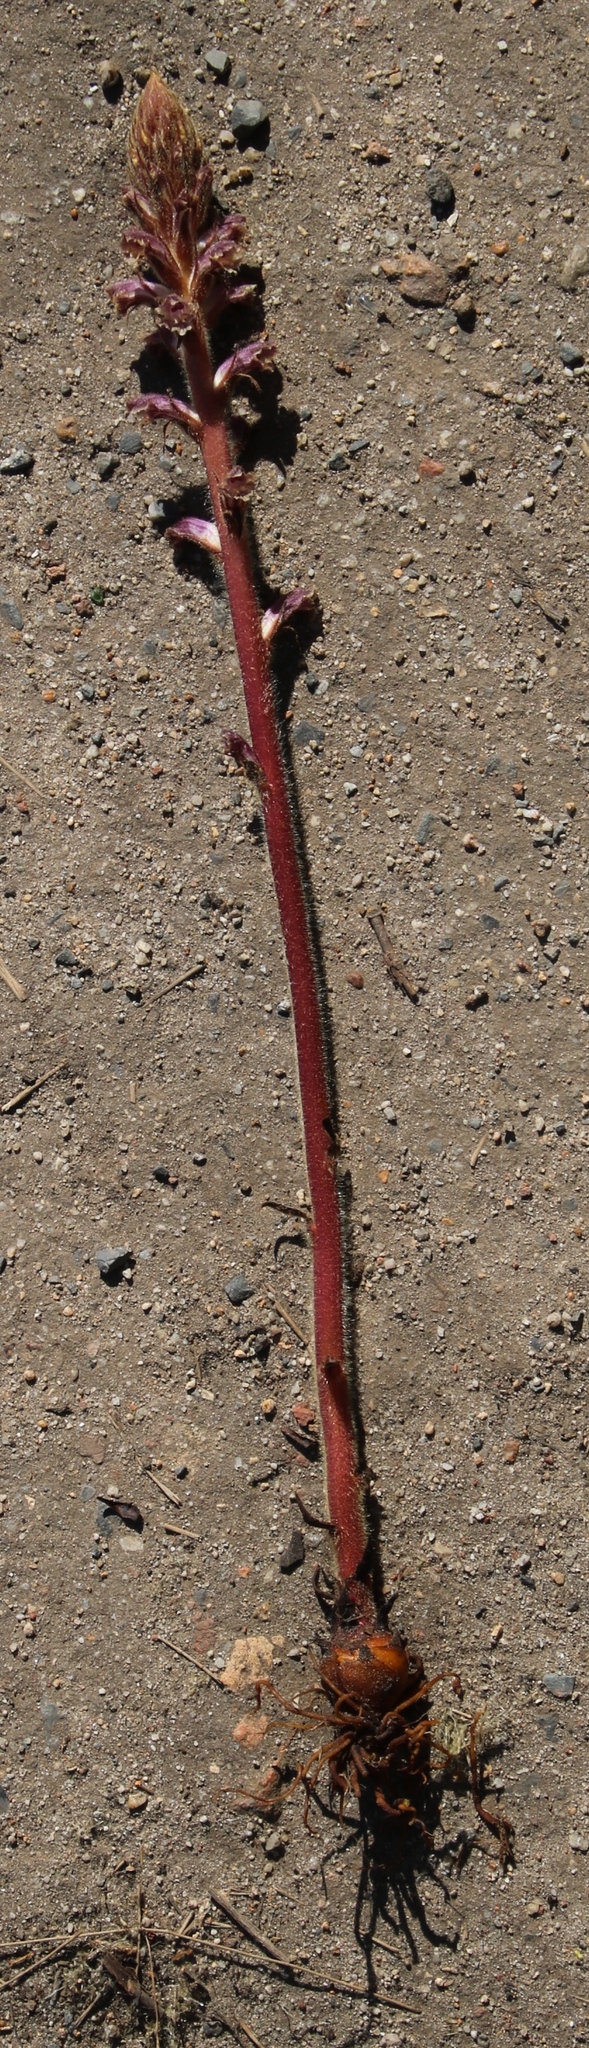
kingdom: Plantae
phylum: Tracheophyta
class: Magnoliopsida
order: Lamiales
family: Orobanchaceae
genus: Orobanche
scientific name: Orobanche minor
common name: Common broomrape
